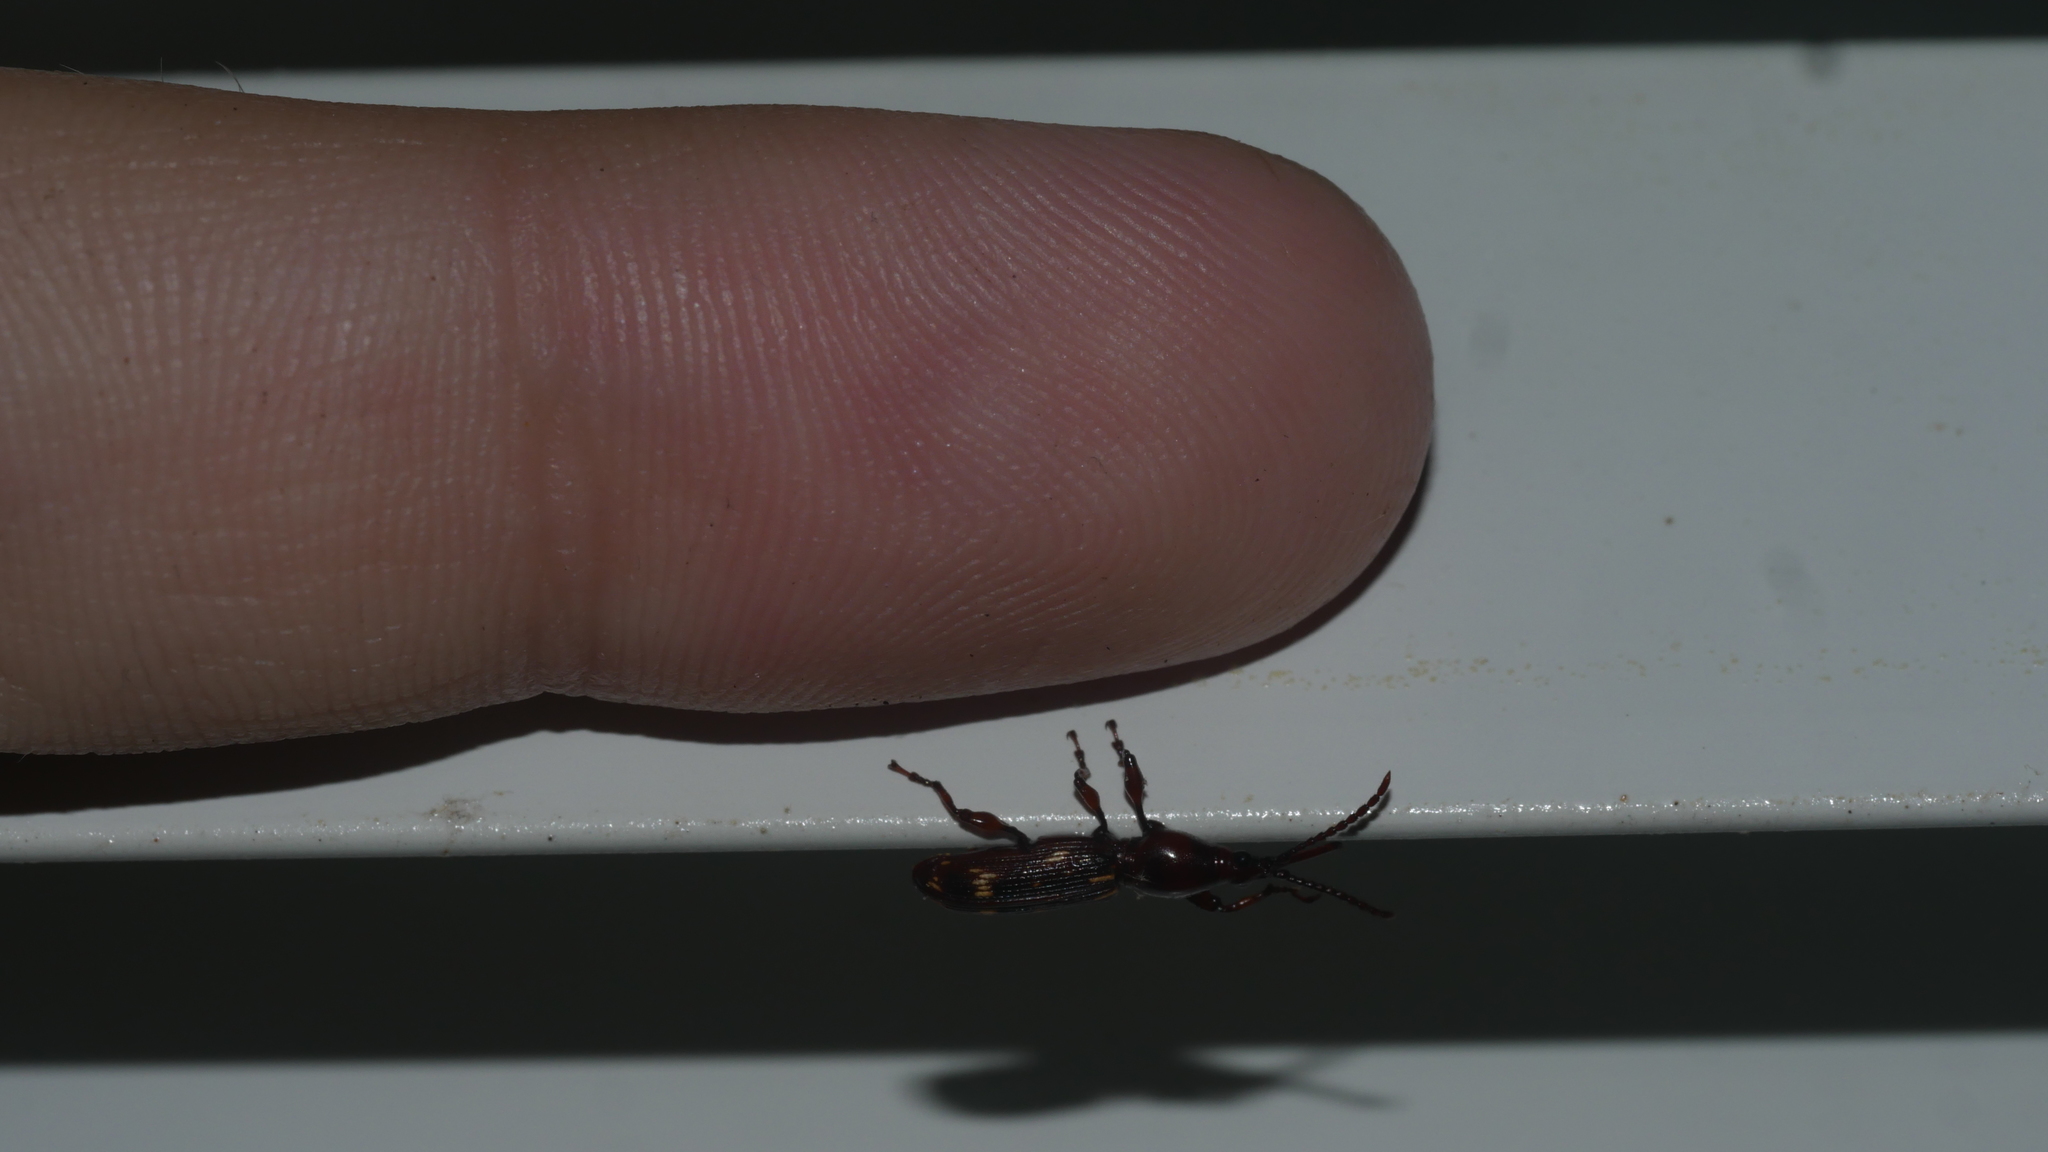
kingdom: Animalia
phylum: Arthropoda
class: Insecta
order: Coleoptera
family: Brentidae
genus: Arrenodes
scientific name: Arrenodes minutus
